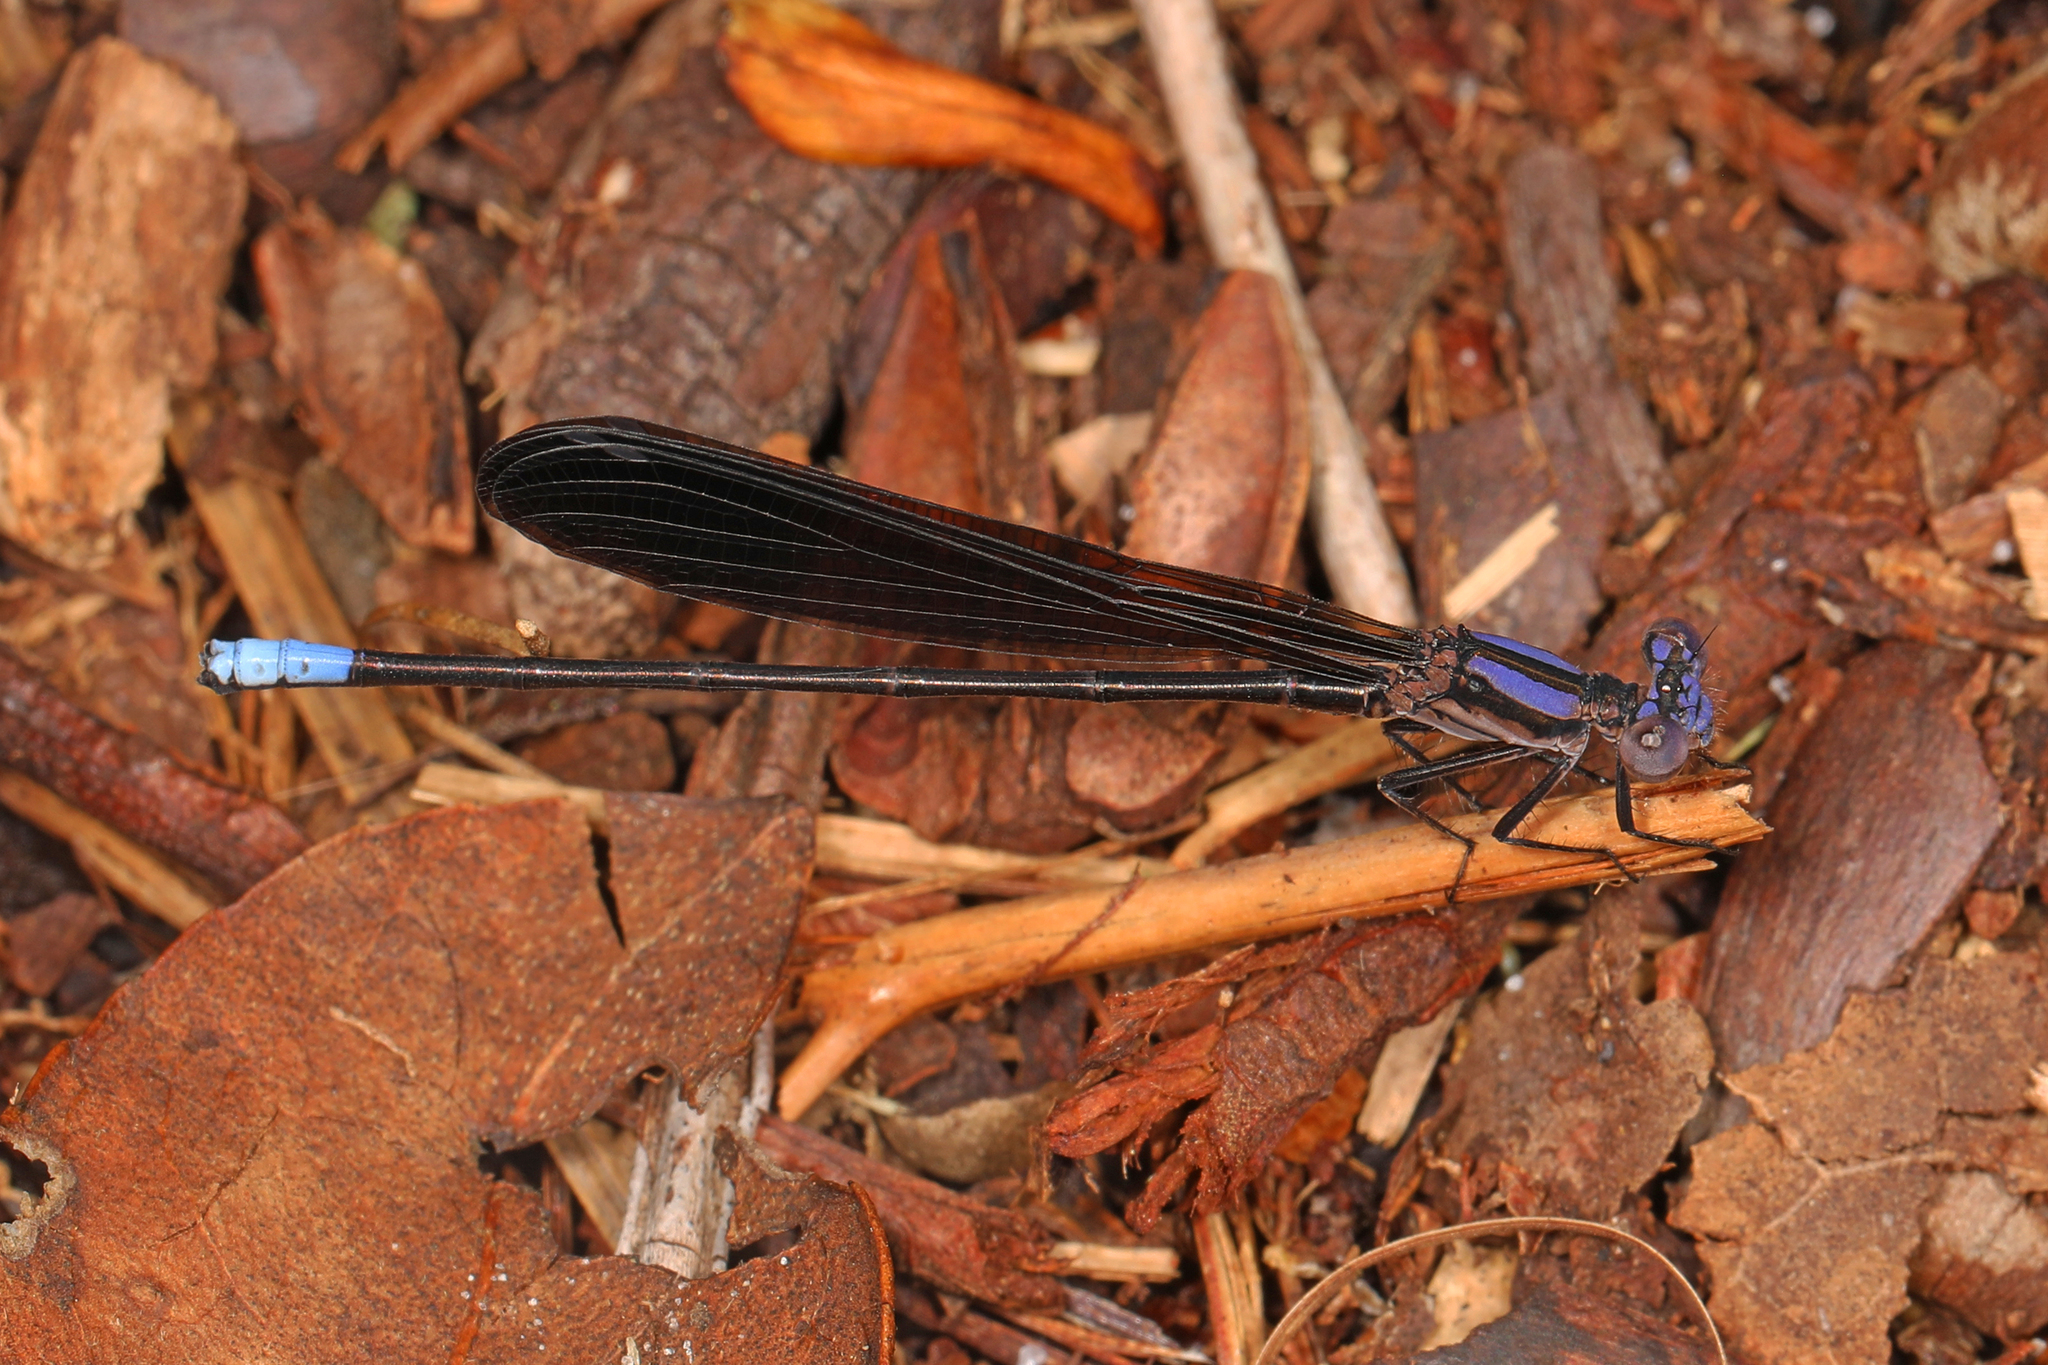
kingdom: Animalia
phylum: Arthropoda
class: Insecta
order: Odonata
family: Coenagrionidae
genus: Argia
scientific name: Argia fumipennis
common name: Variable dancer
